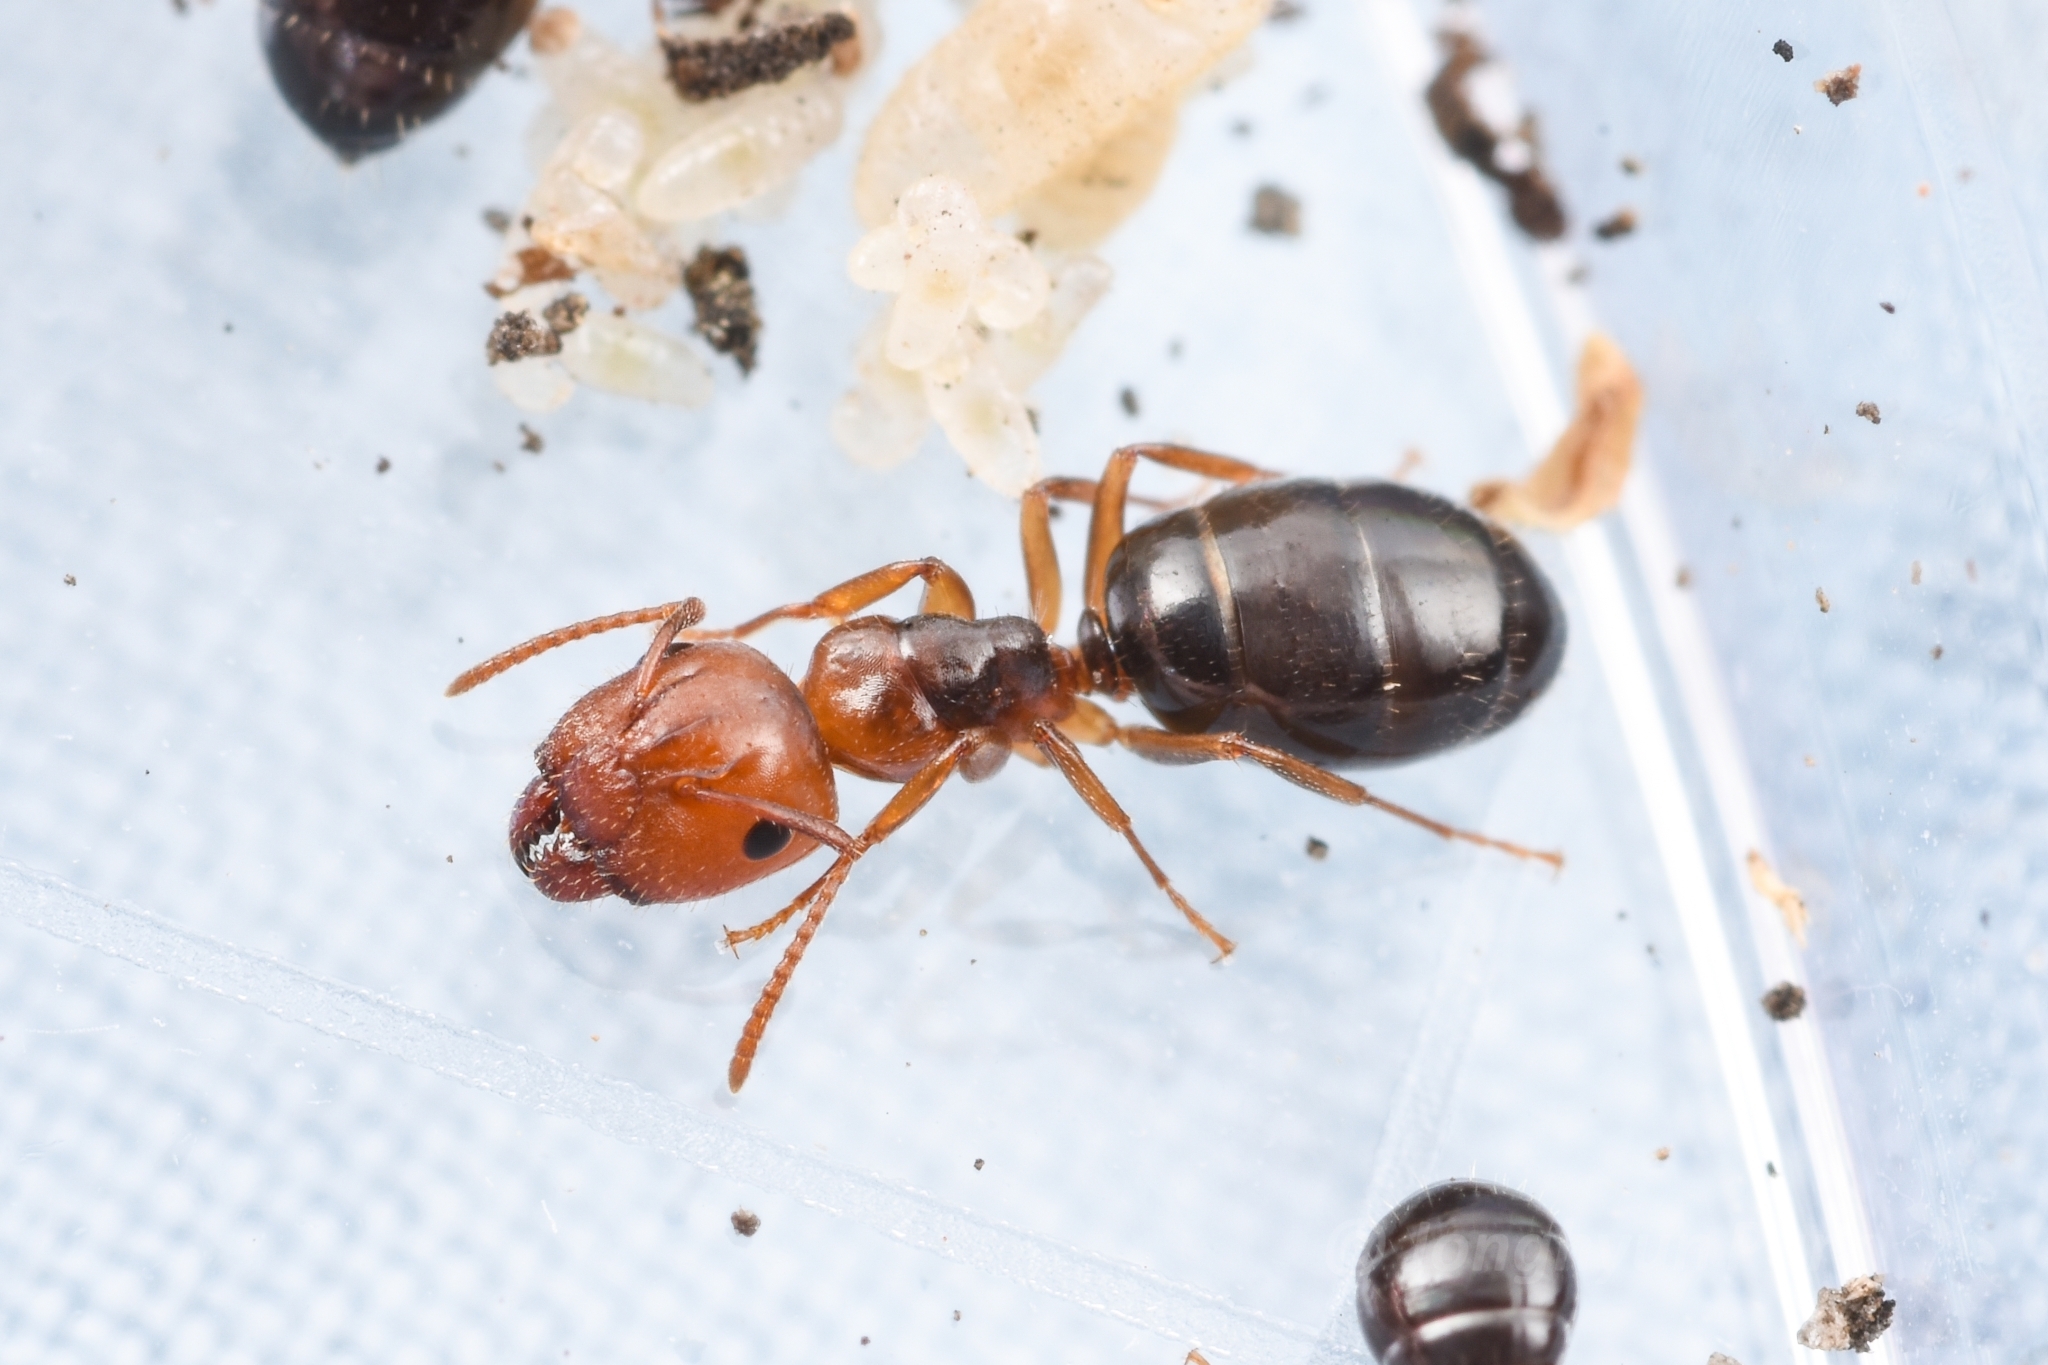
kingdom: Animalia
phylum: Arthropoda
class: Insecta
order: Hymenoptera
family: Formicidae
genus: Camponotus
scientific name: Camponotus itoi
